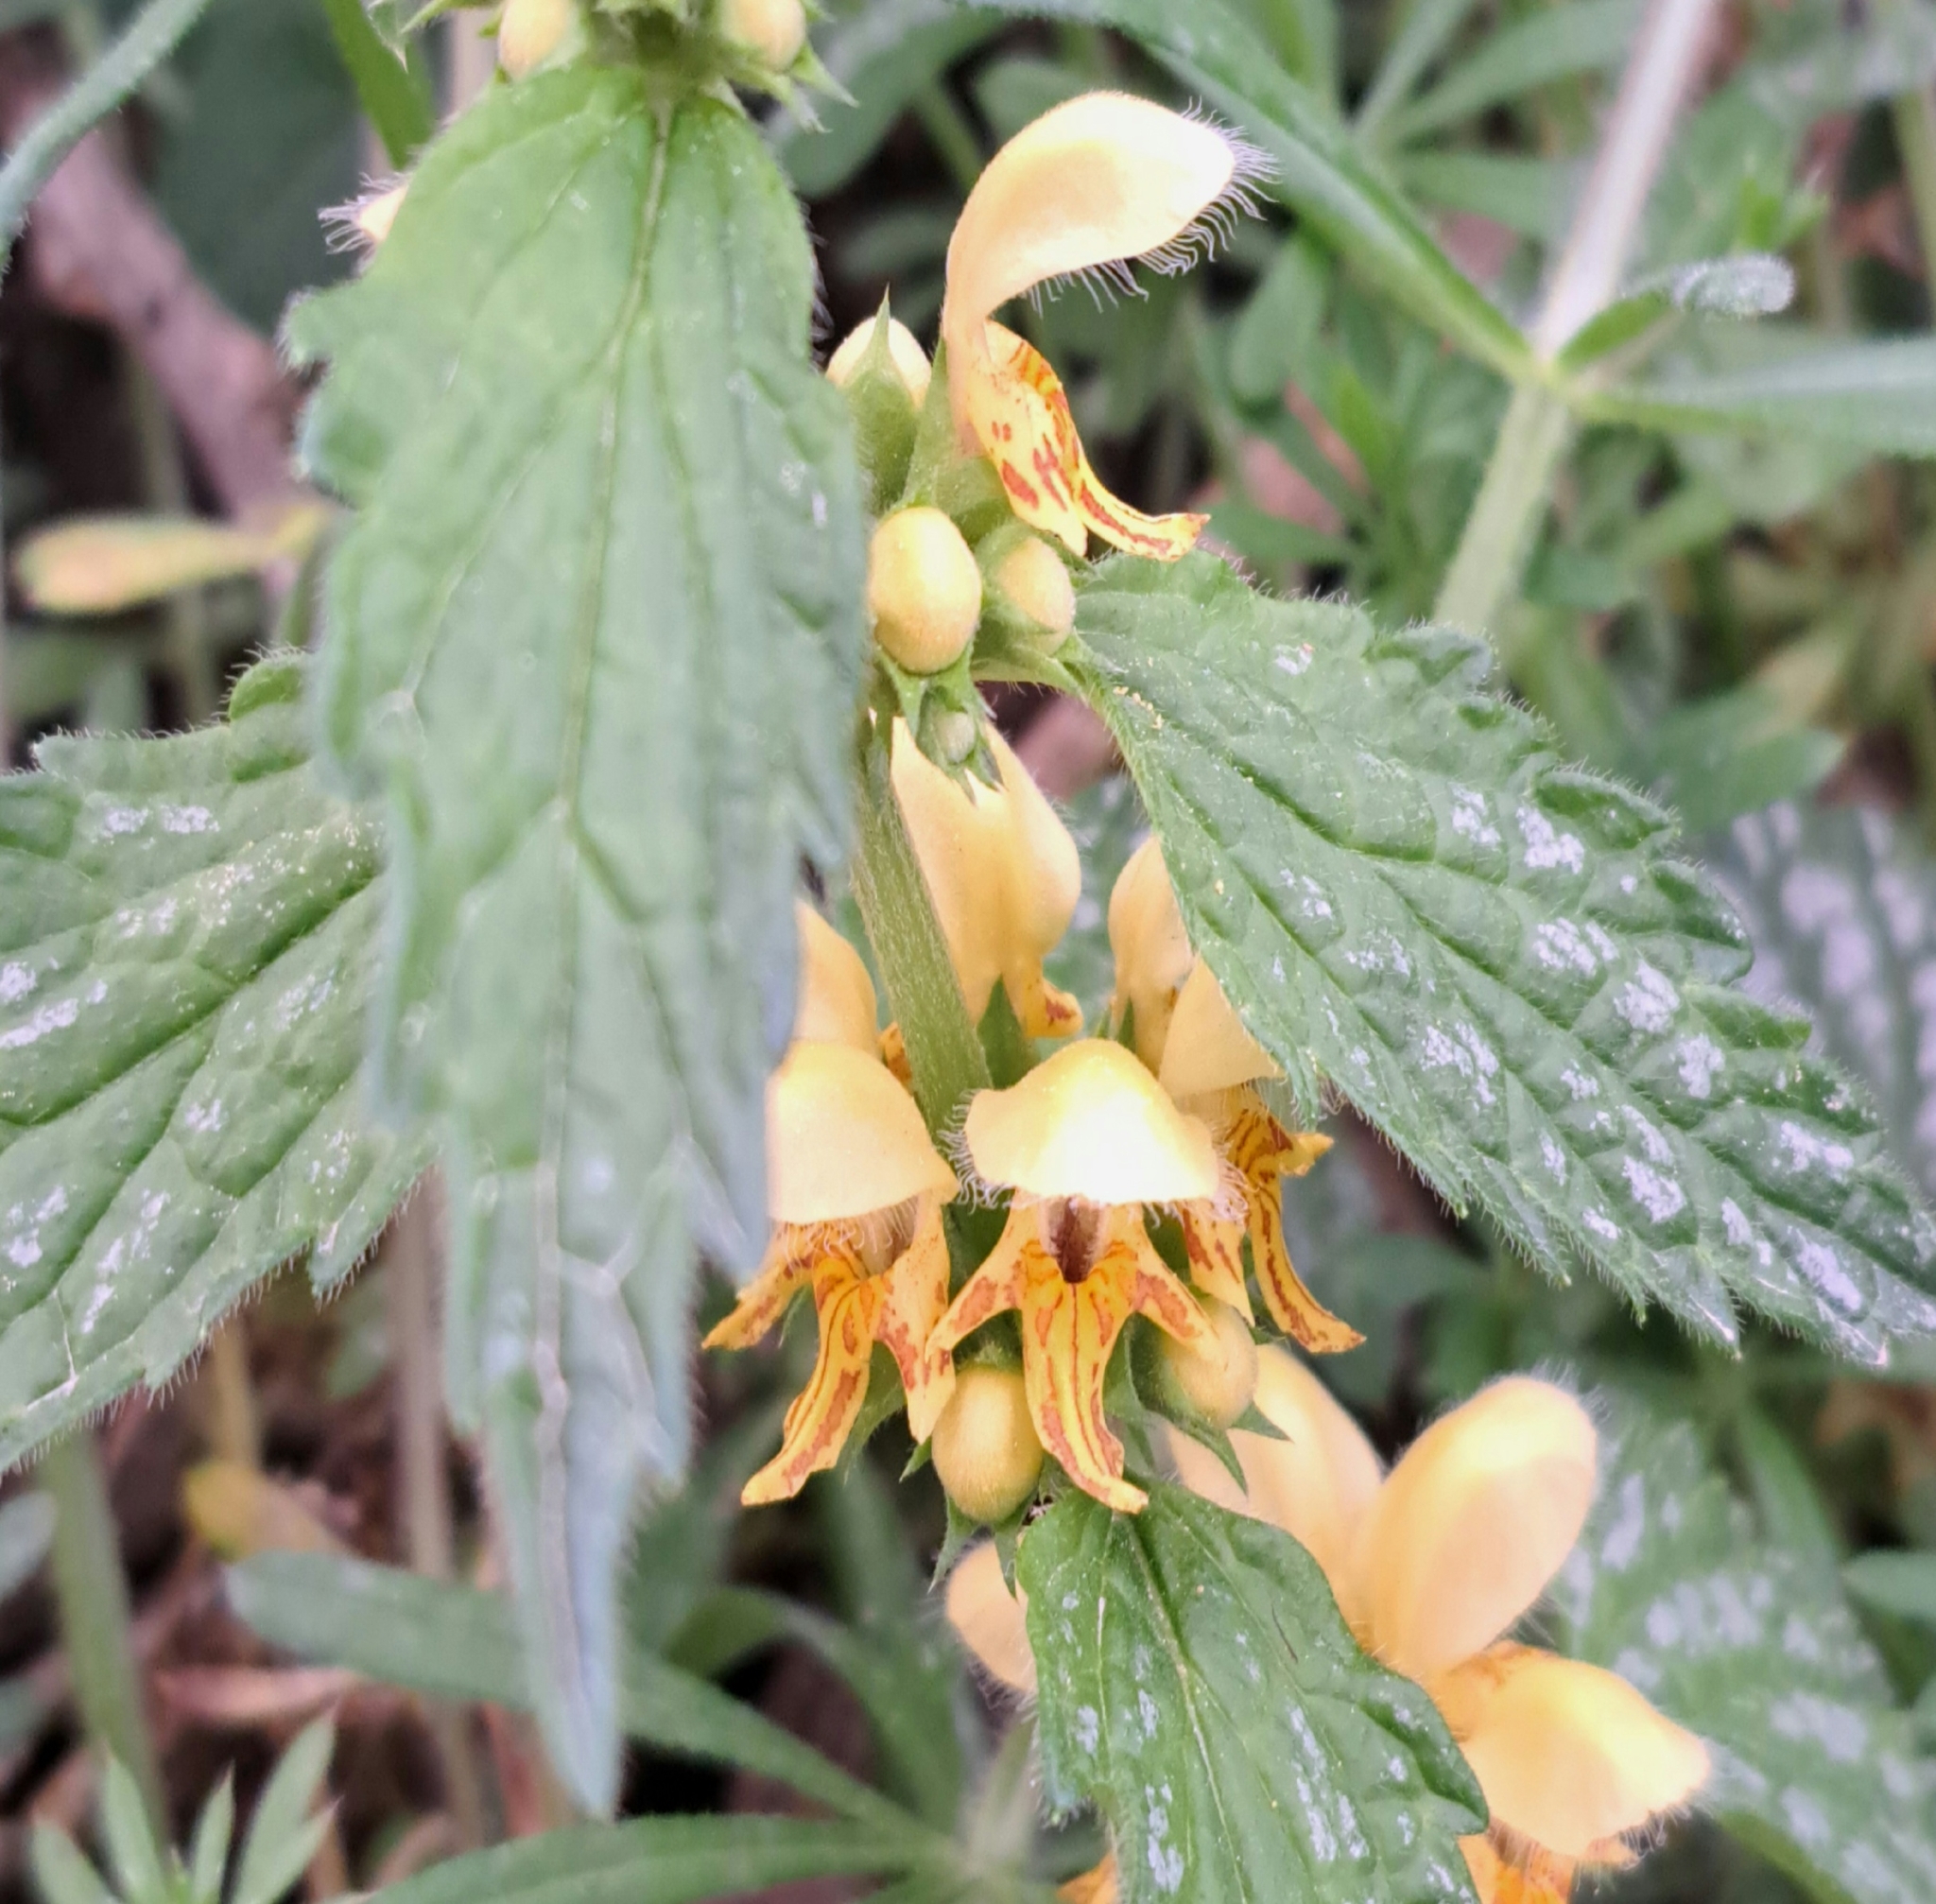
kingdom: Plantae
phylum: Tracheophyta
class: Magnoliopsida
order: Lamiales
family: Lamiaceae
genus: Lamium
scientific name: Lamium galeobdolon
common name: Yellow archangel
